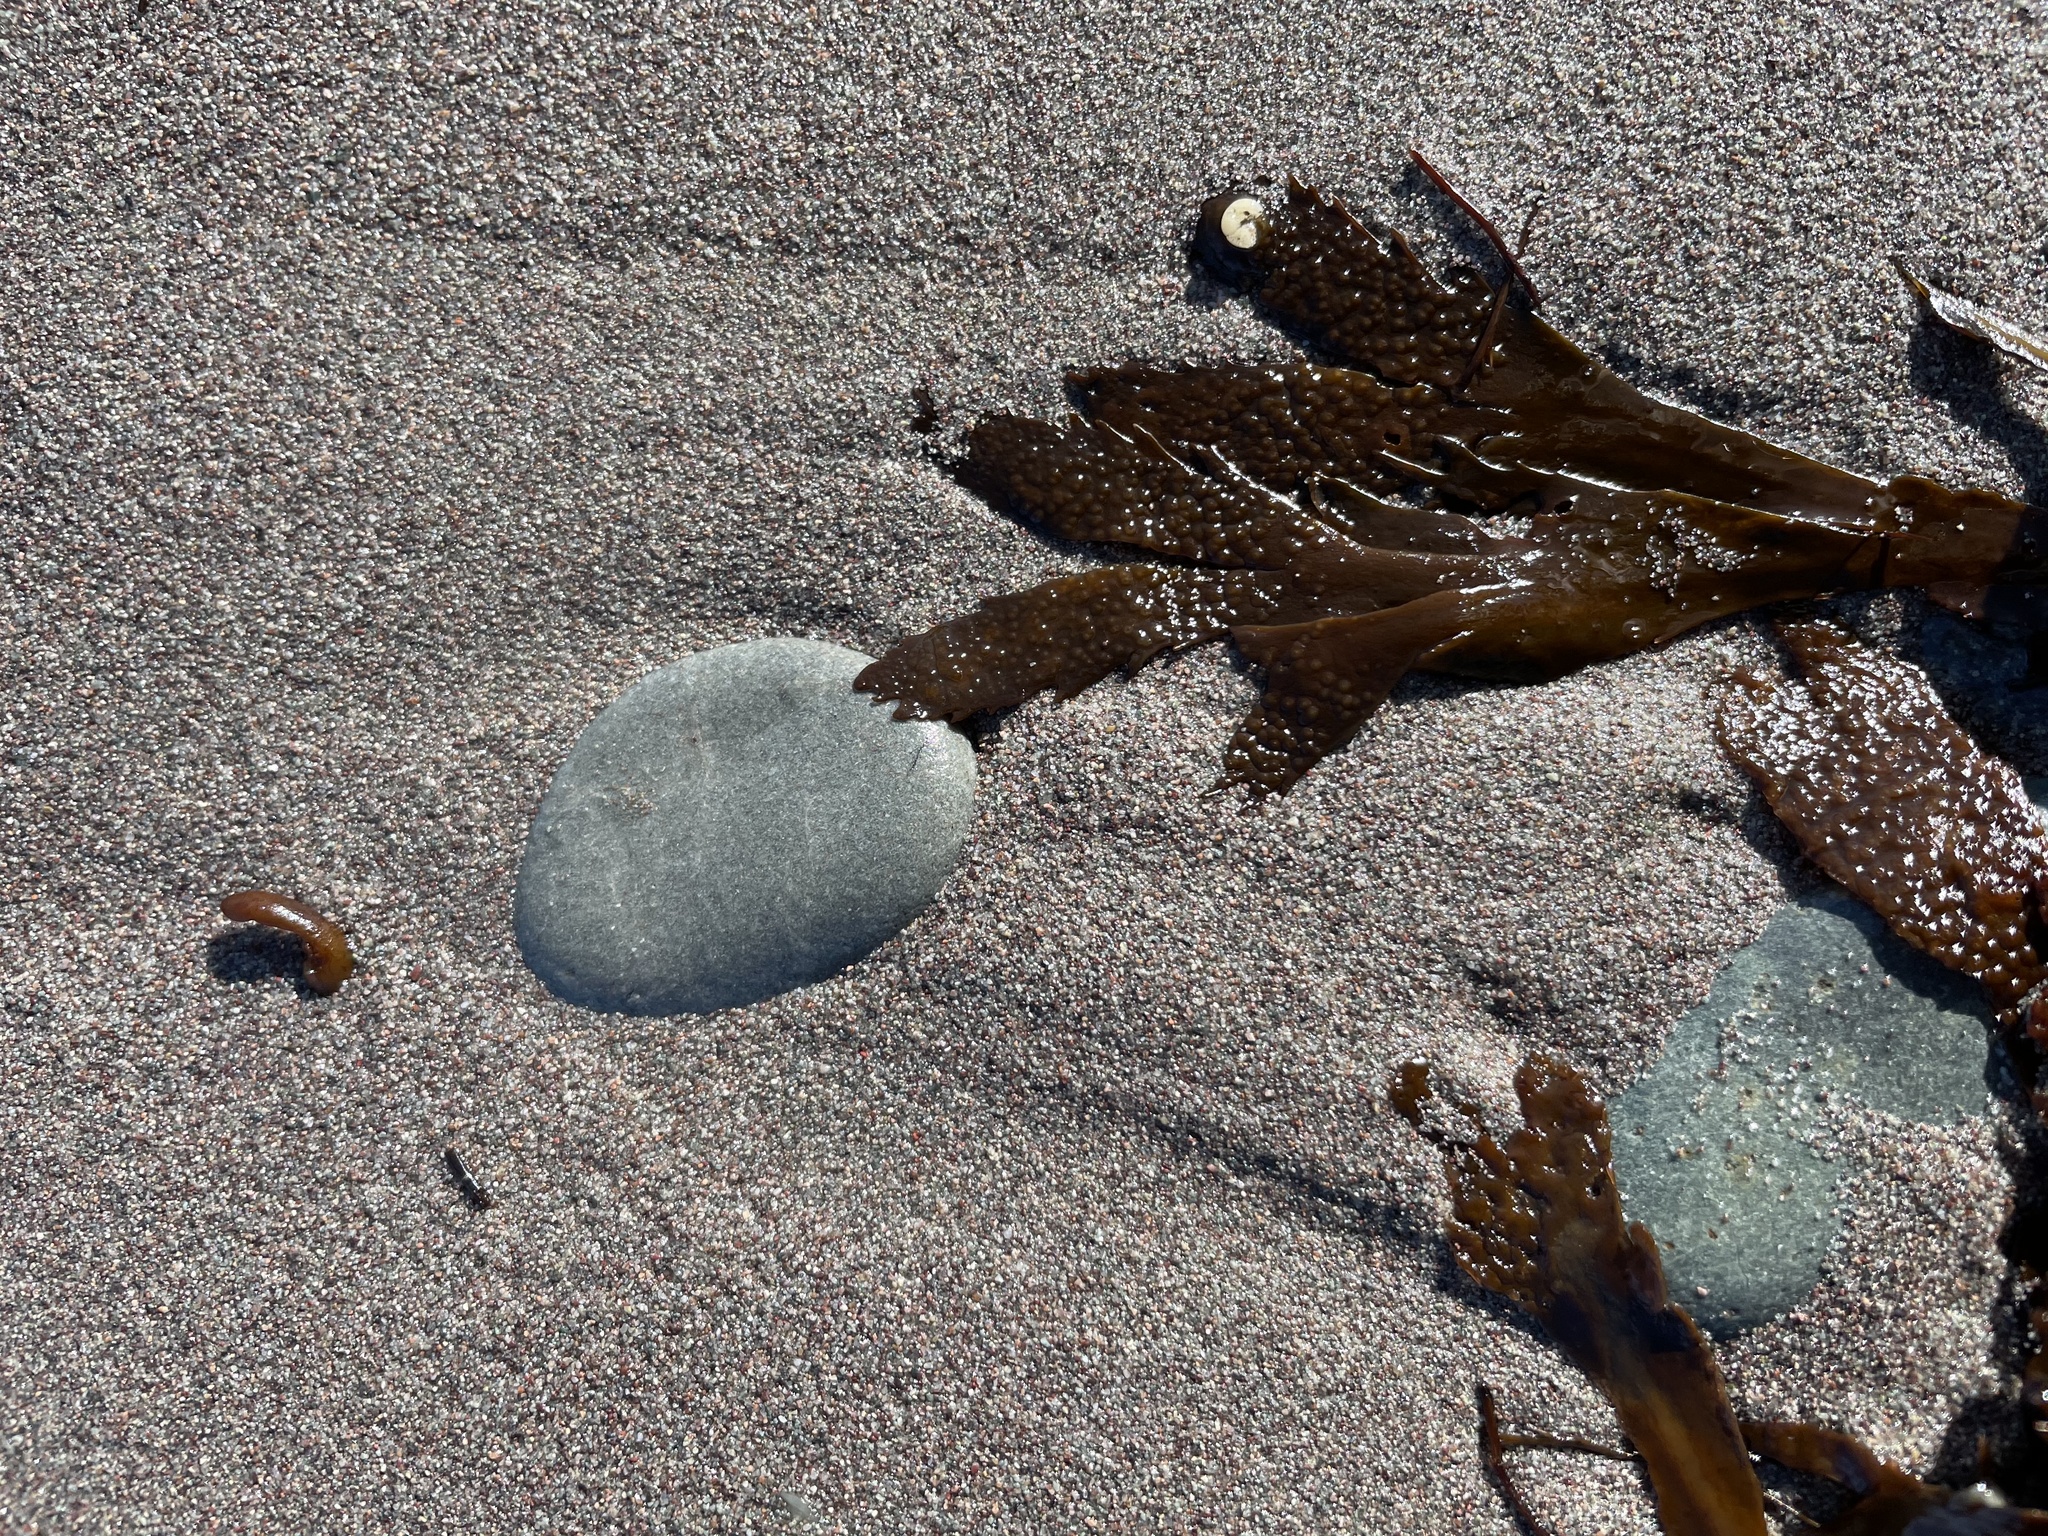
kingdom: Chromista
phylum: Ochrophyta
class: Phaeophyceae
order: Fucales
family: Fucaceae
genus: Fucus
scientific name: Fucus serratus
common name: Toothed wrack
